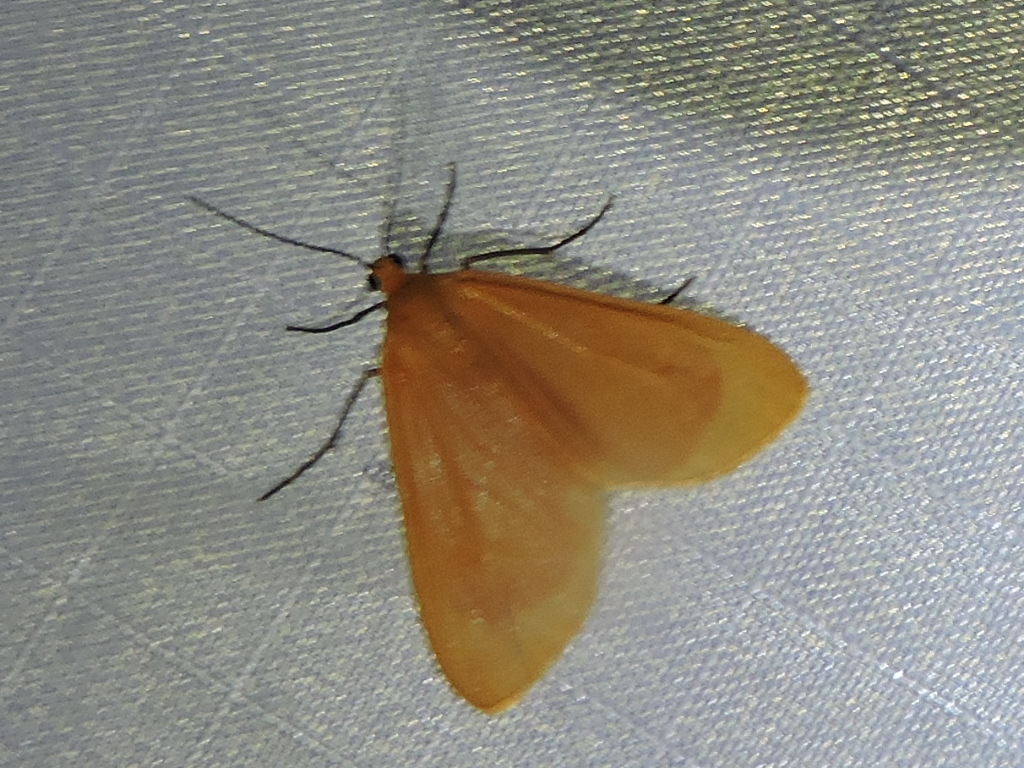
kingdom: Animalia
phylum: Arthropoda
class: Insecta
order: Lepidoptera
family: Geometridae
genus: Eubaphe
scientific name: Eubaphe unicolor
